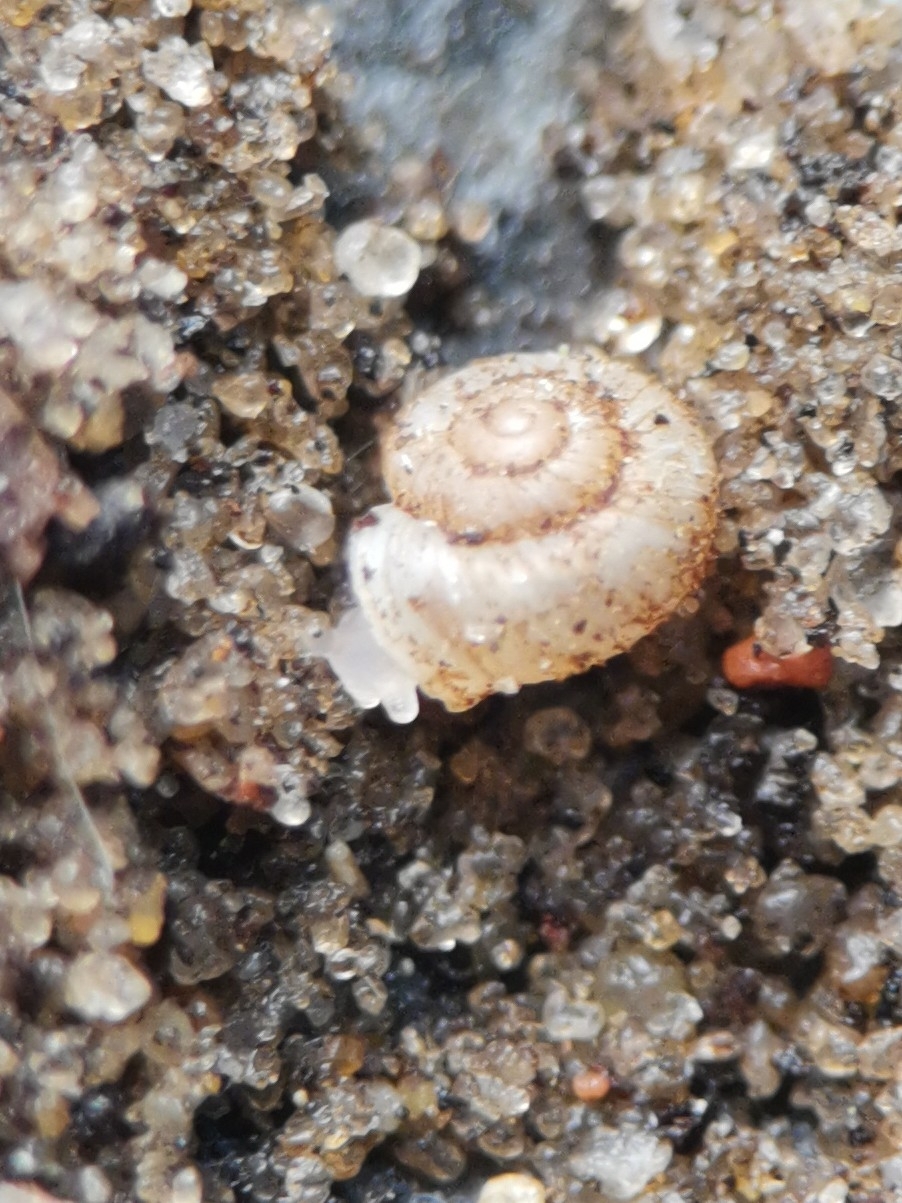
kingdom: Animalia
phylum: Mollusca
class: Gastropoda
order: Stylommatophora
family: Valloniidae
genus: Vallonia
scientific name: Vallonia costata
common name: Ribbed grass snail
